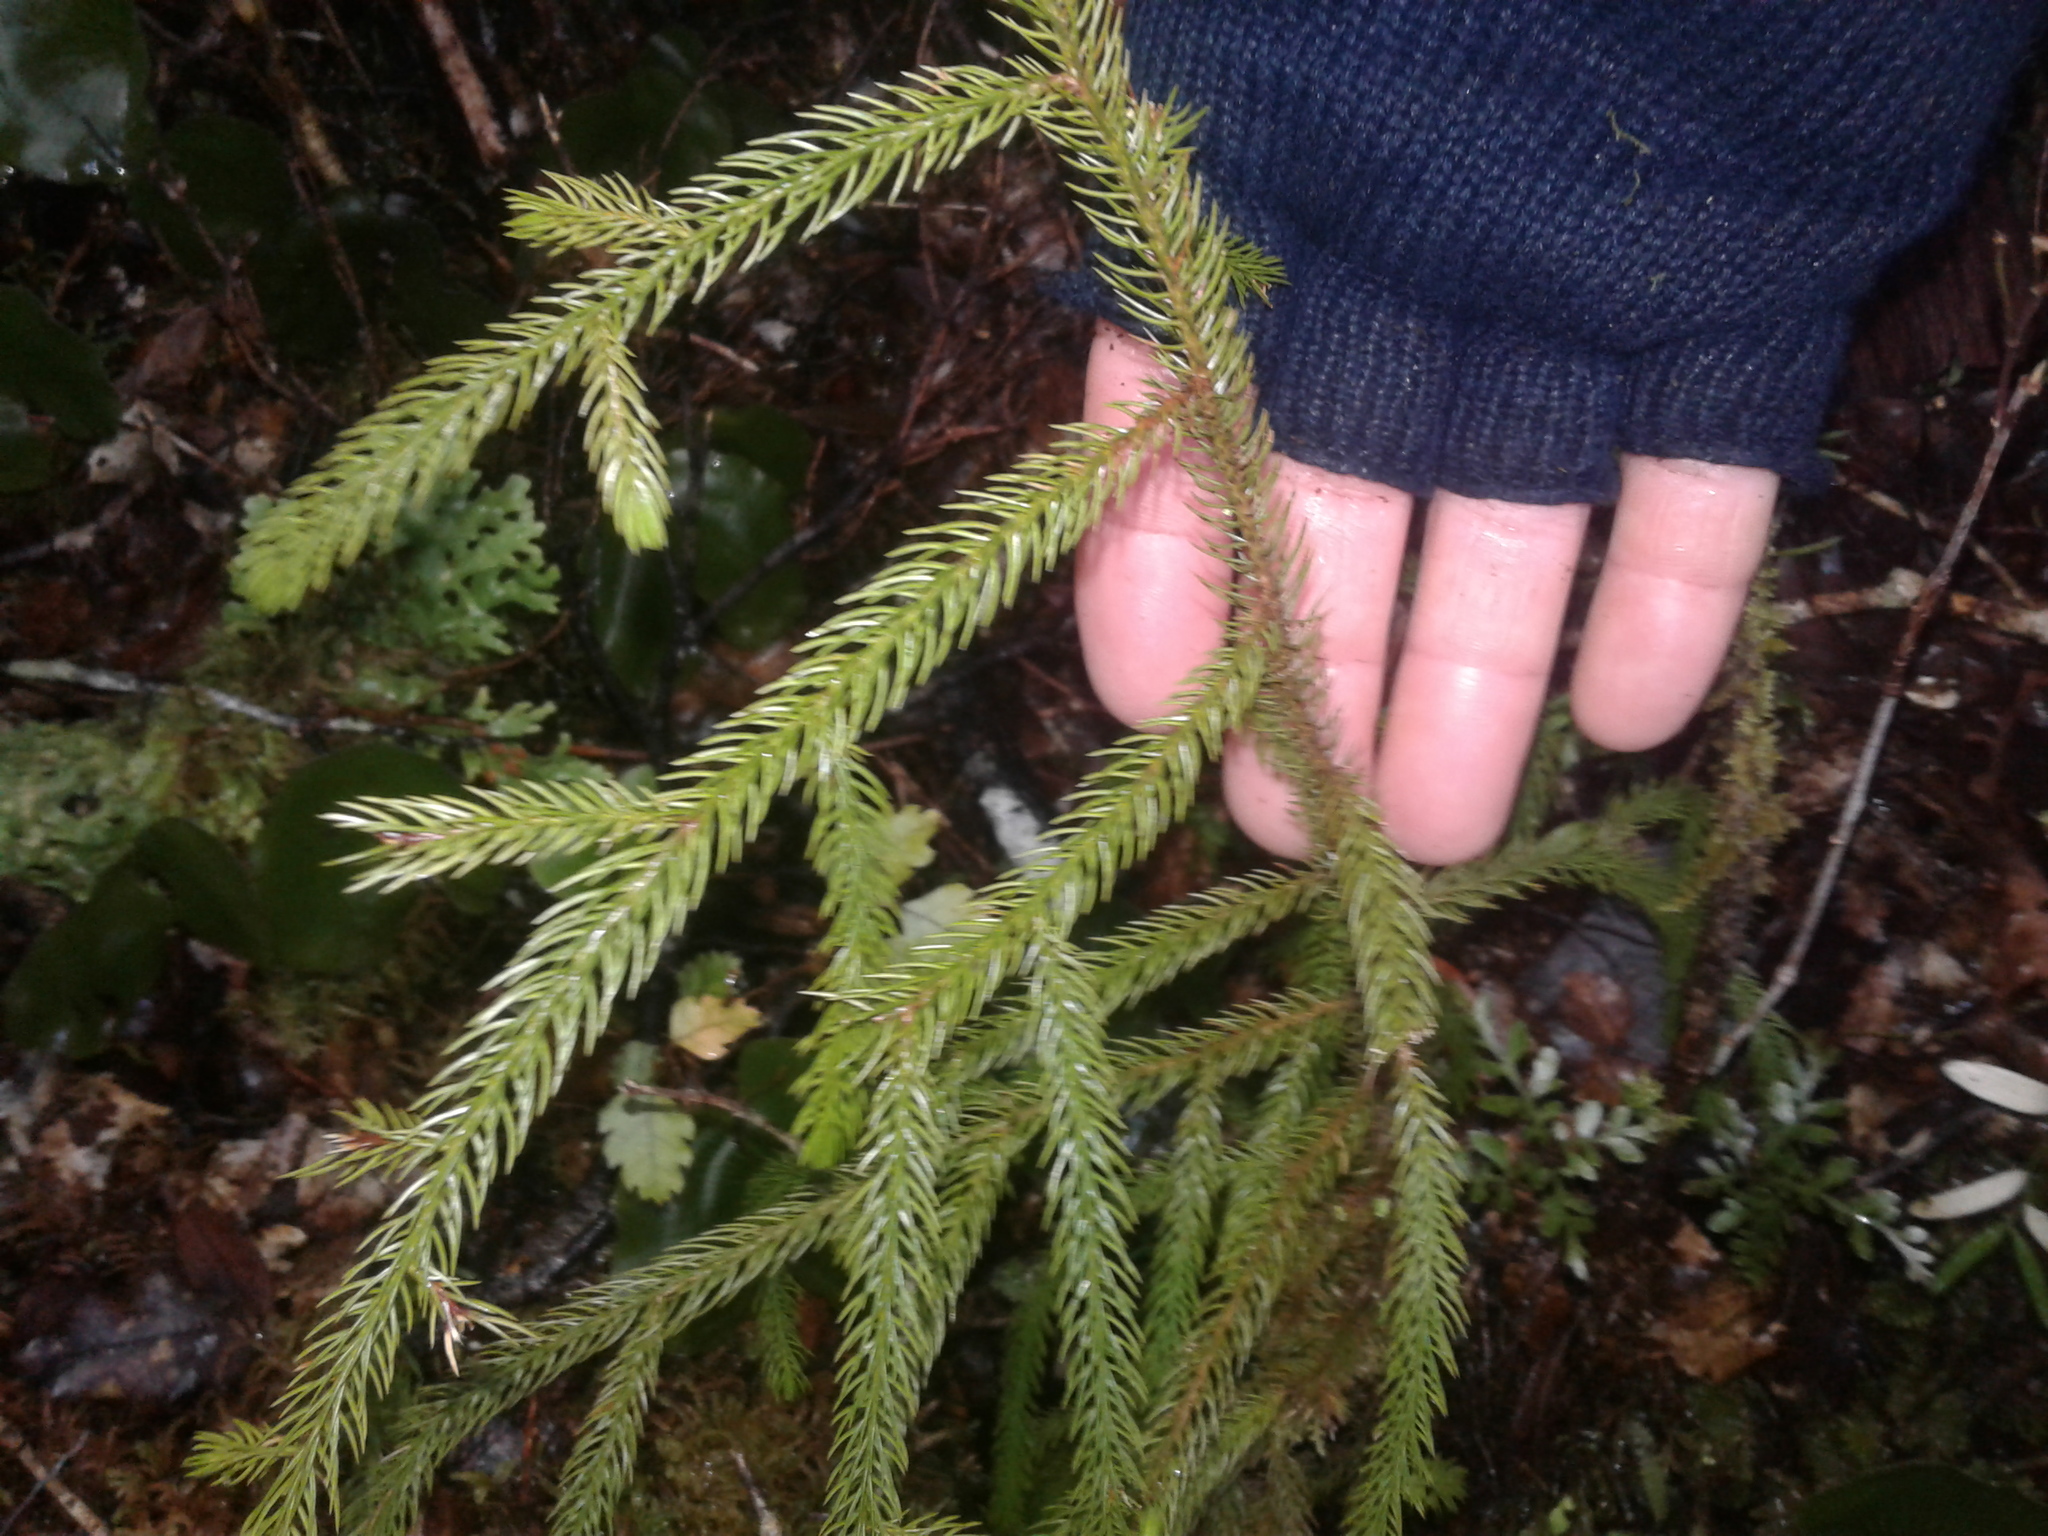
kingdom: Plantae
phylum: Tracheophyta
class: Pinopsida
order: Pinales
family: Podocarpaceae
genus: Dacrydium
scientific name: Dacrydium cupressinum
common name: Red pine
